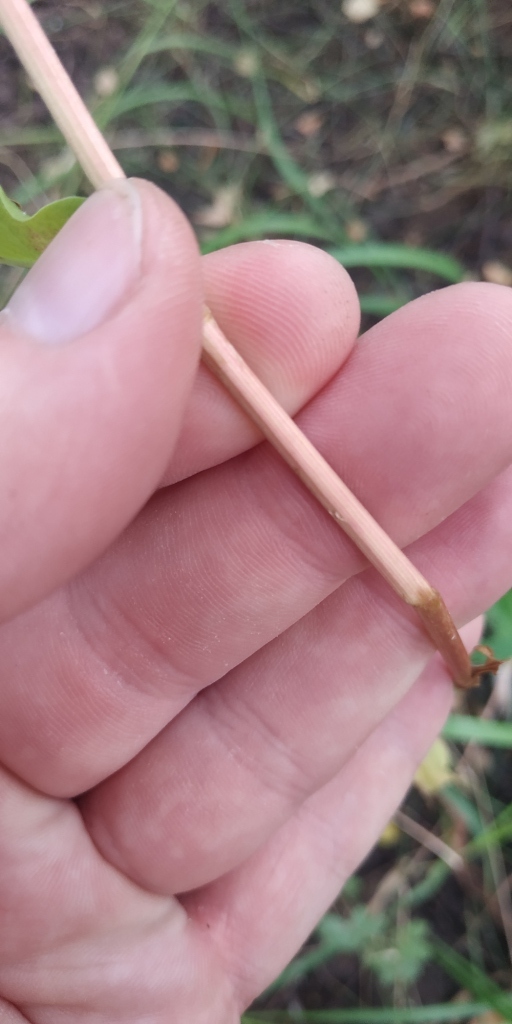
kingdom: Plantae
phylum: Tracheophyta
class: Magnoliopsida
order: Caryophyllales
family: Polygonaceae
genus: Rumex
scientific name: Rumex crispus
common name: Curled dock
